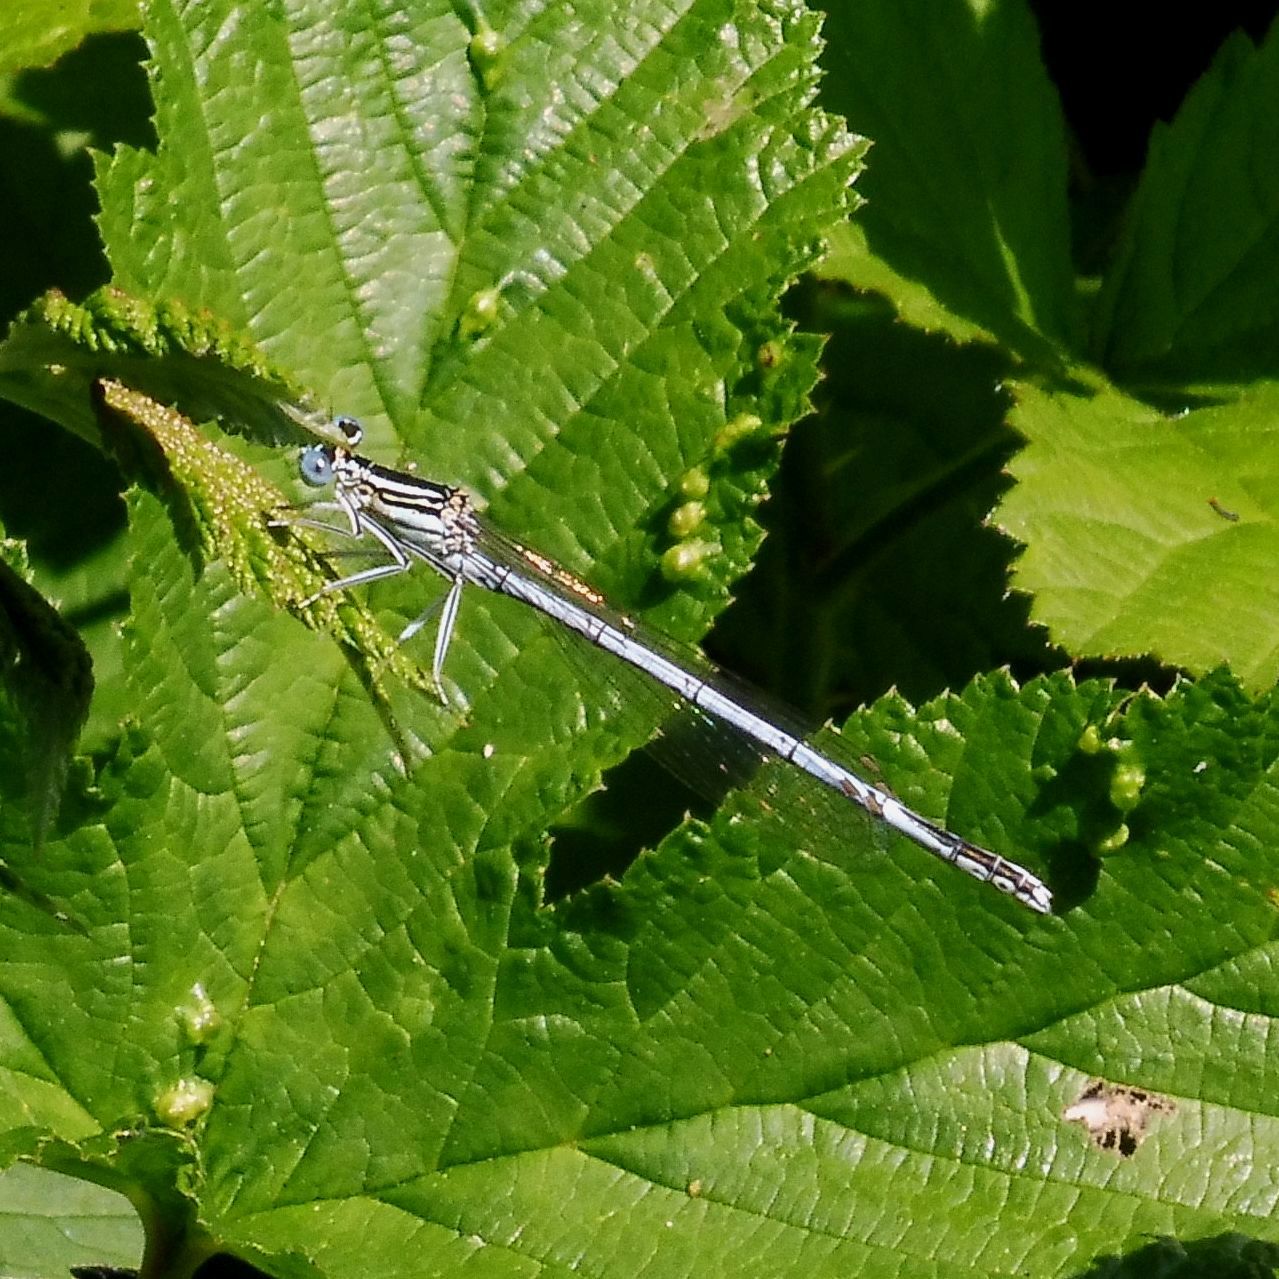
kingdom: Animalia
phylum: Arthropoda
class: Insecta
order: Odonata
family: Platycnemididae
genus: Platycnemis
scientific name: Platycnemis pennipes
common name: White-legged damselfly
